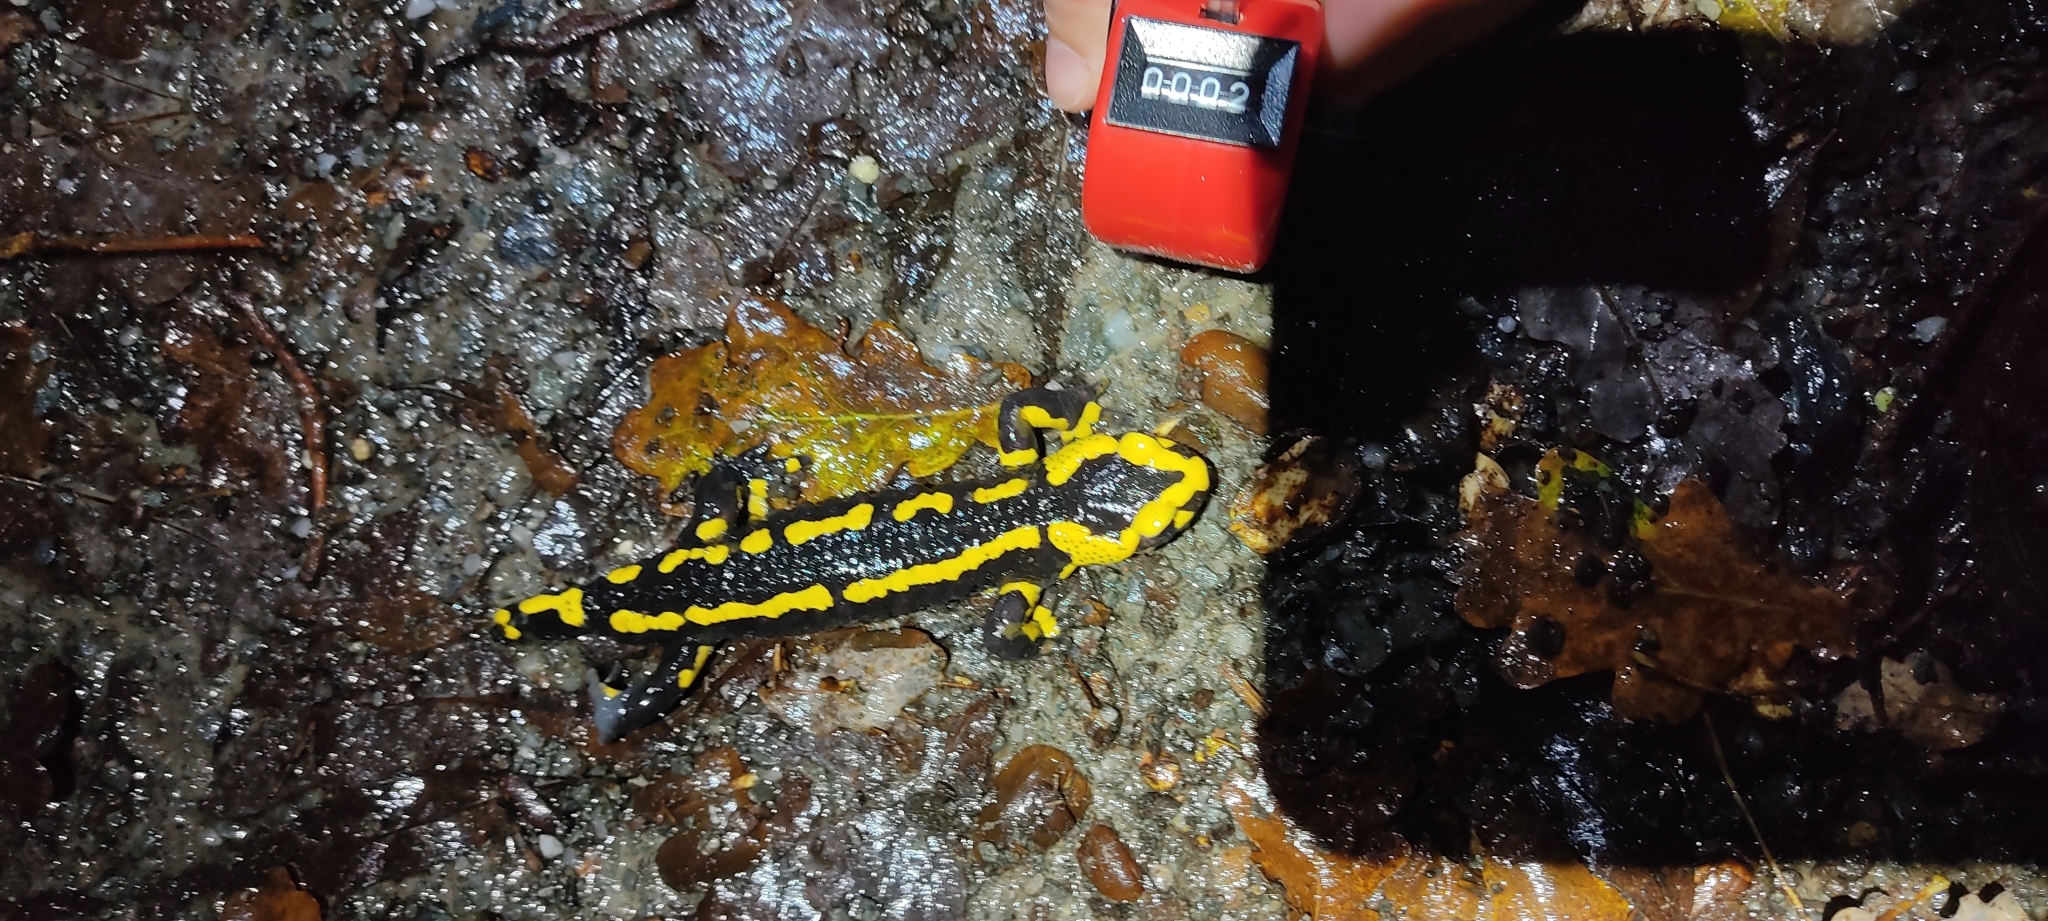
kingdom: Animalia
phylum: Chordata
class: Amphibia
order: Caudata
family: Salamandridae
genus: Salamandra
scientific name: Salamandra salamandra
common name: Fire salamander
